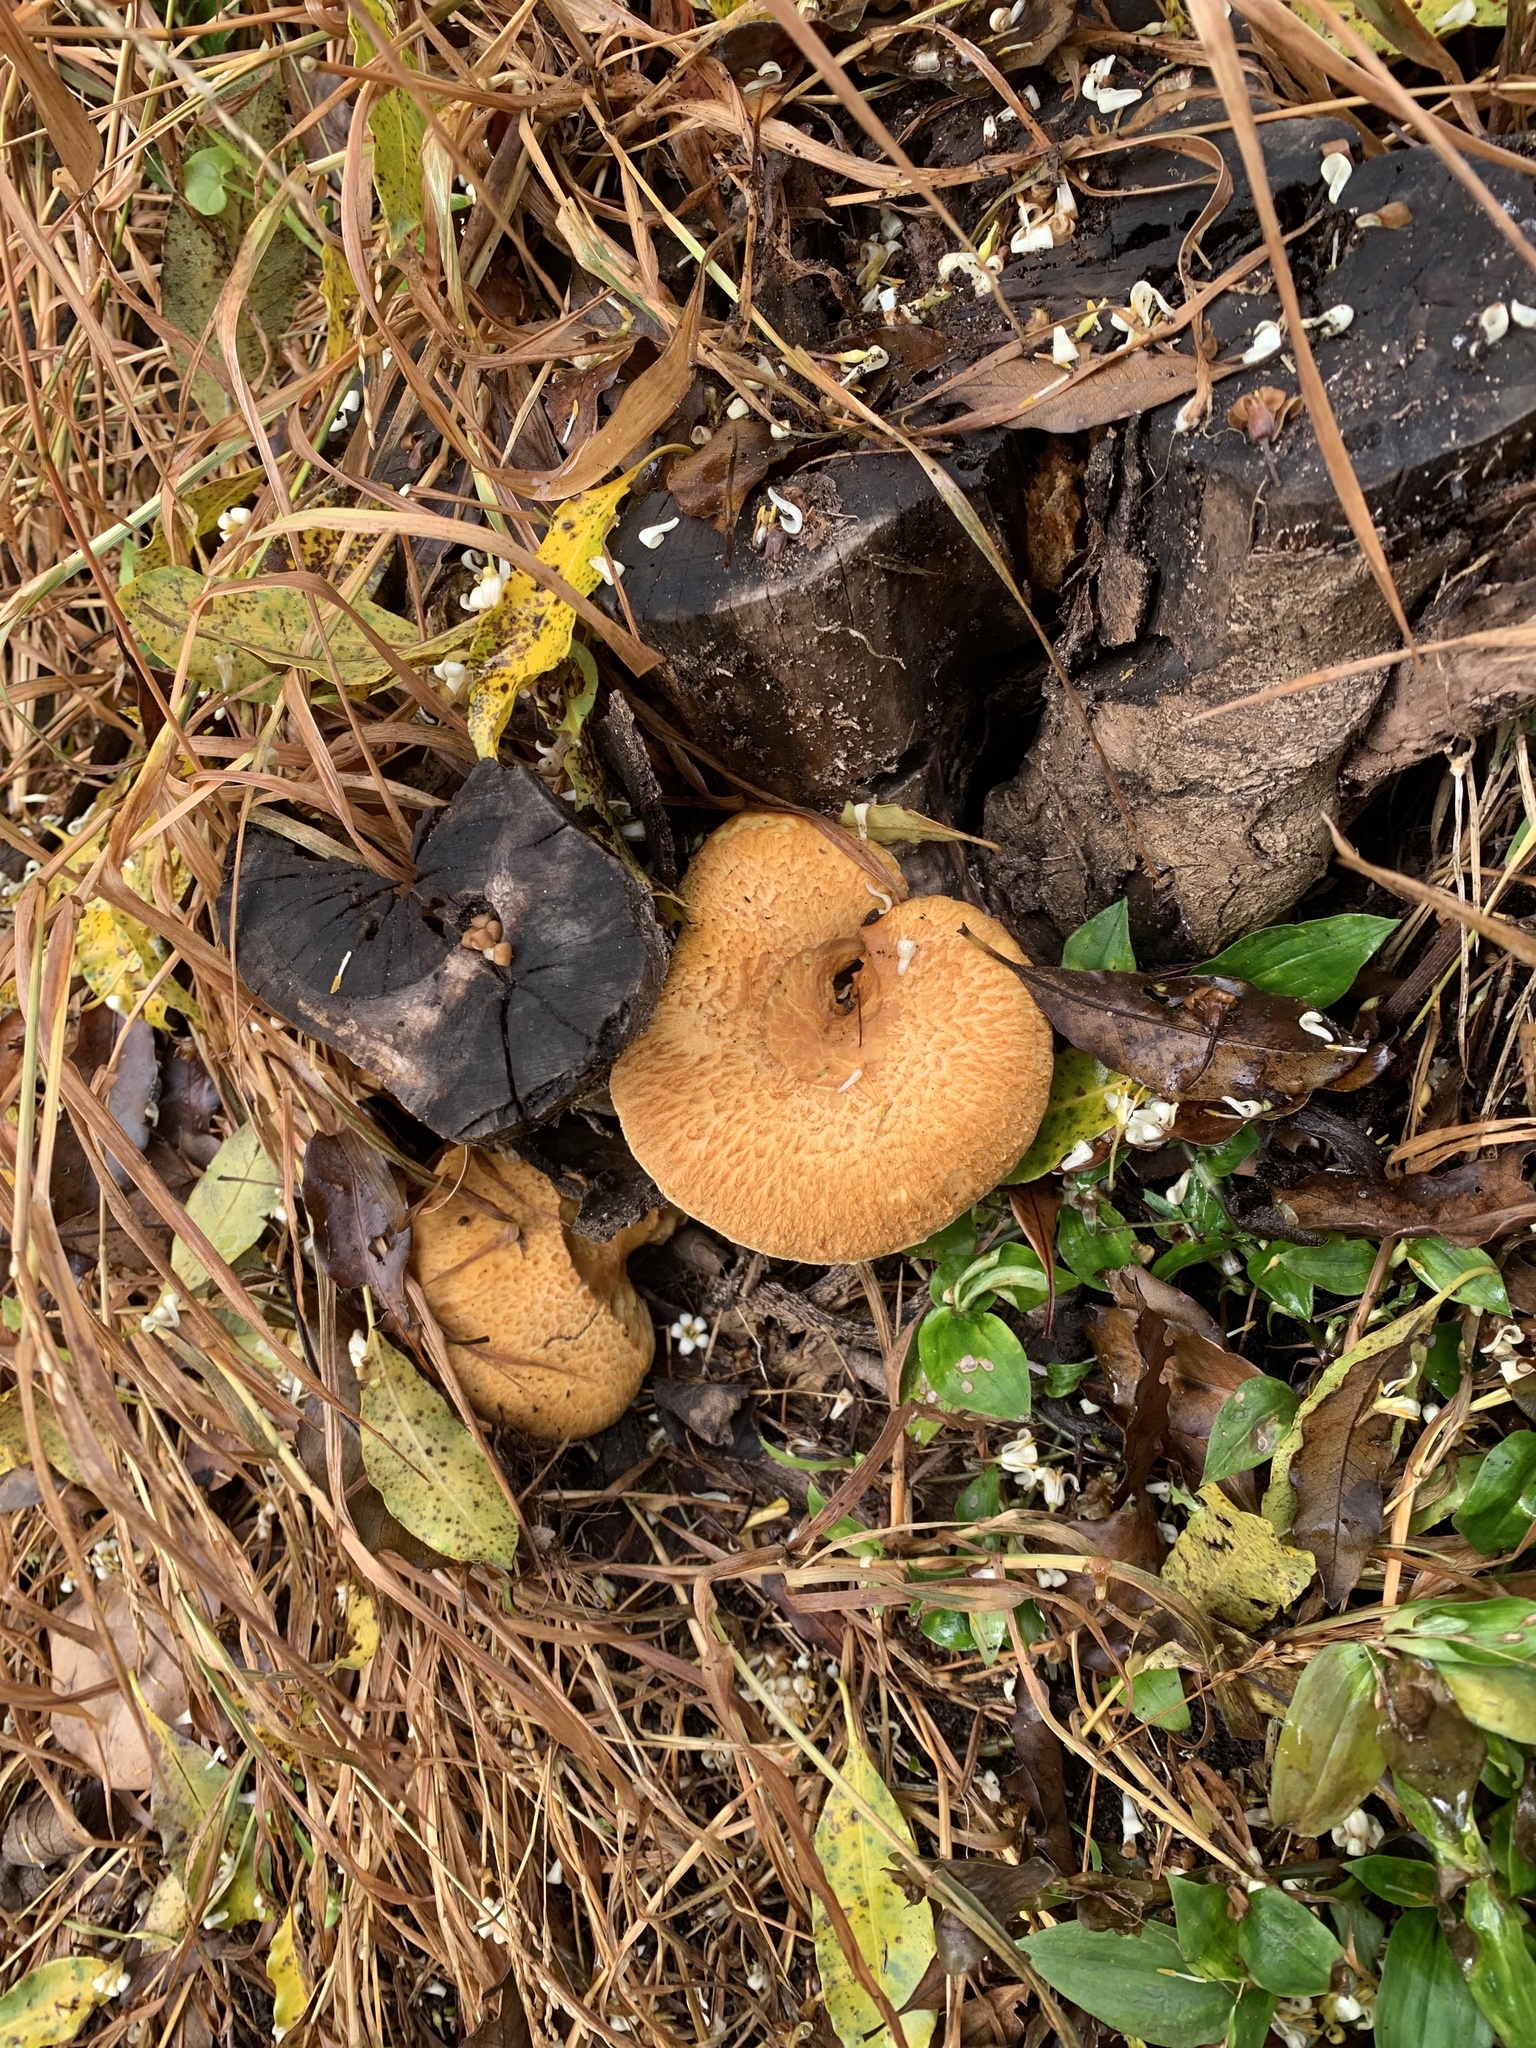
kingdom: Fungi
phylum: Basidiomycota
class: Agaricomycetes
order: Agaricales
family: Hymenogastraceae
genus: Gymnopilus
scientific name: Gymnopilus junonius
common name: Spectacular rustgill
